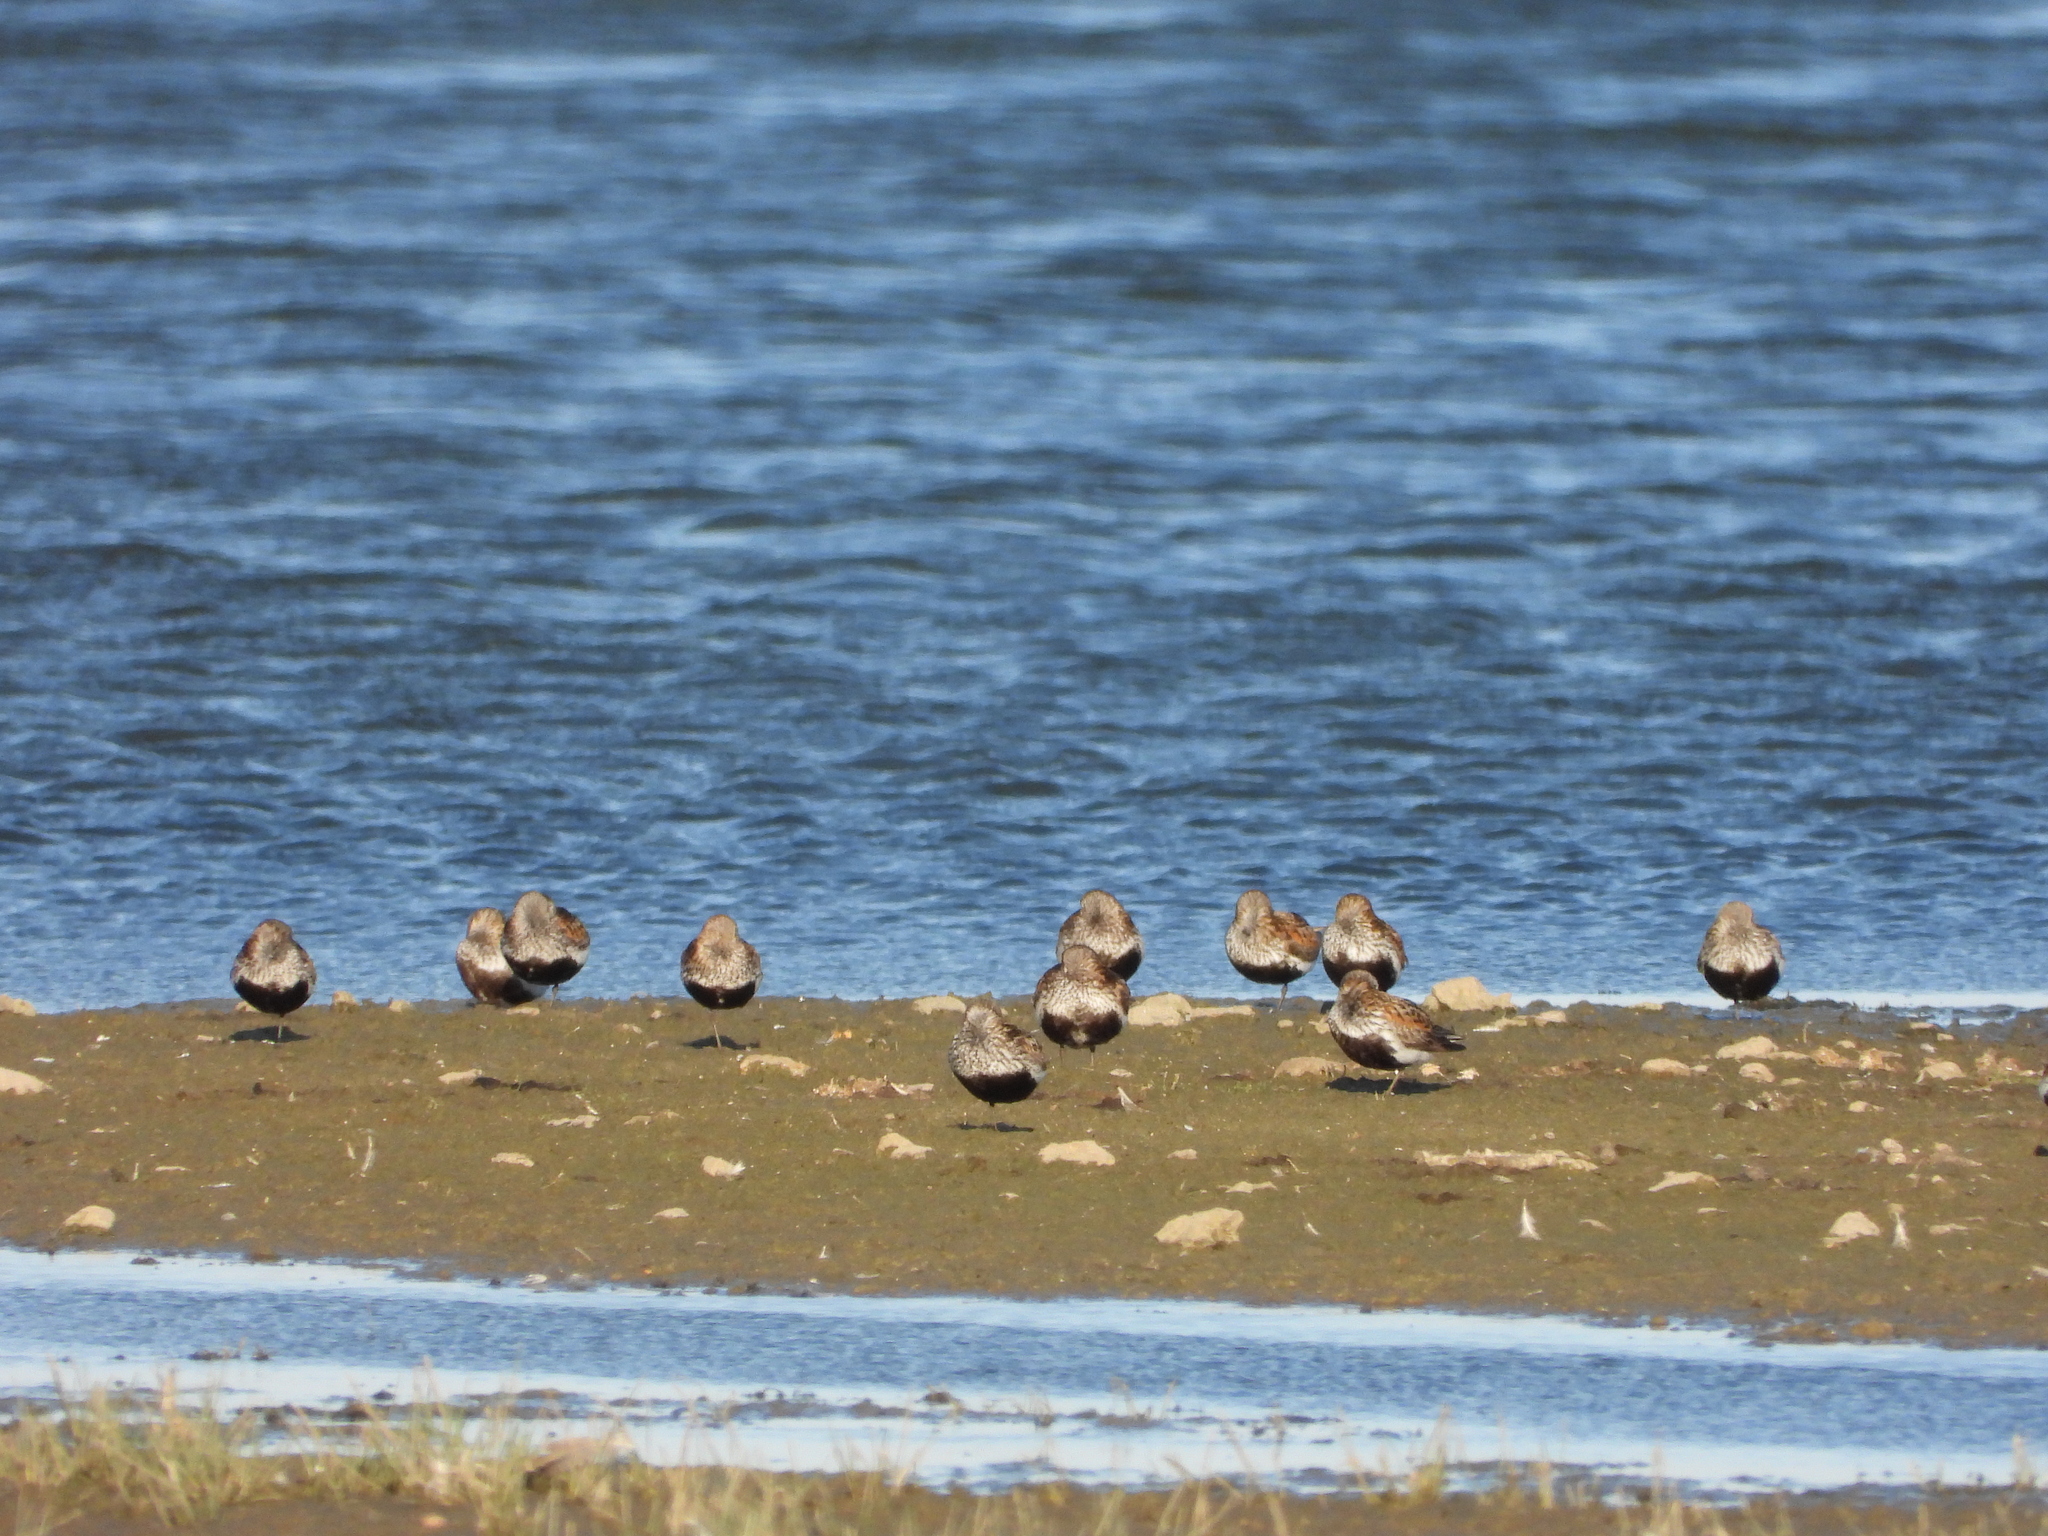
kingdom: Animalia
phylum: Chordata
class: Aves
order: Charadriiformes
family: Scolopacidae
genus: Calidris
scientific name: Calidris alpina
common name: Dunlin
